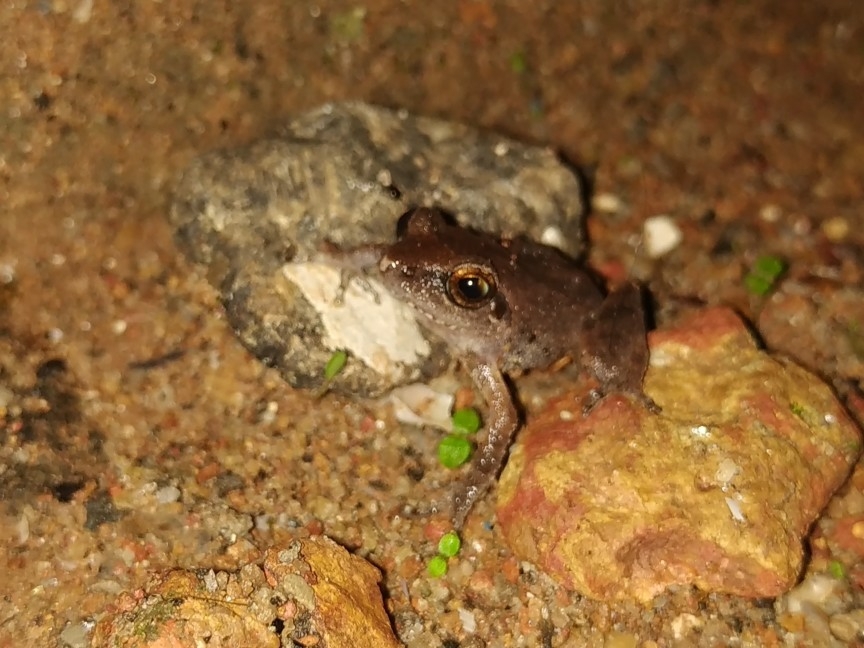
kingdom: Animalia
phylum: Chordata
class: Amphibia
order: Anura
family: Rhacophoridae
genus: Pseudophilautus
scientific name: Pseudophilautus wynaadensis
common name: Dark-eared bush frog
